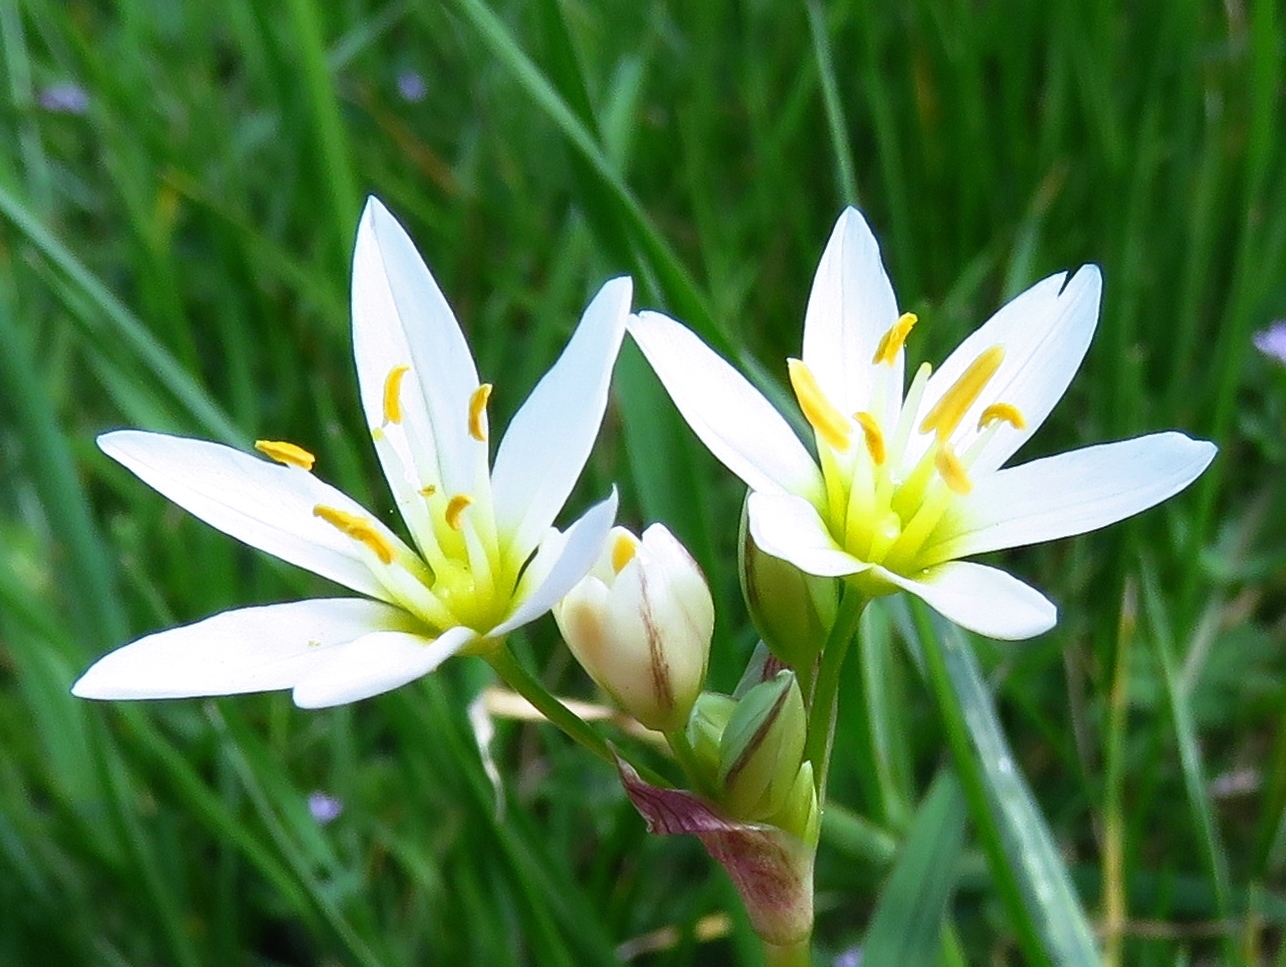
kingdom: Plantae
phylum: Tracheophyta
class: Liliopsida
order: Asparagales
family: Amaryllidaceae
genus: Nothoscordum
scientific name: Nothoscordum bivalve
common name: Crow-poison
